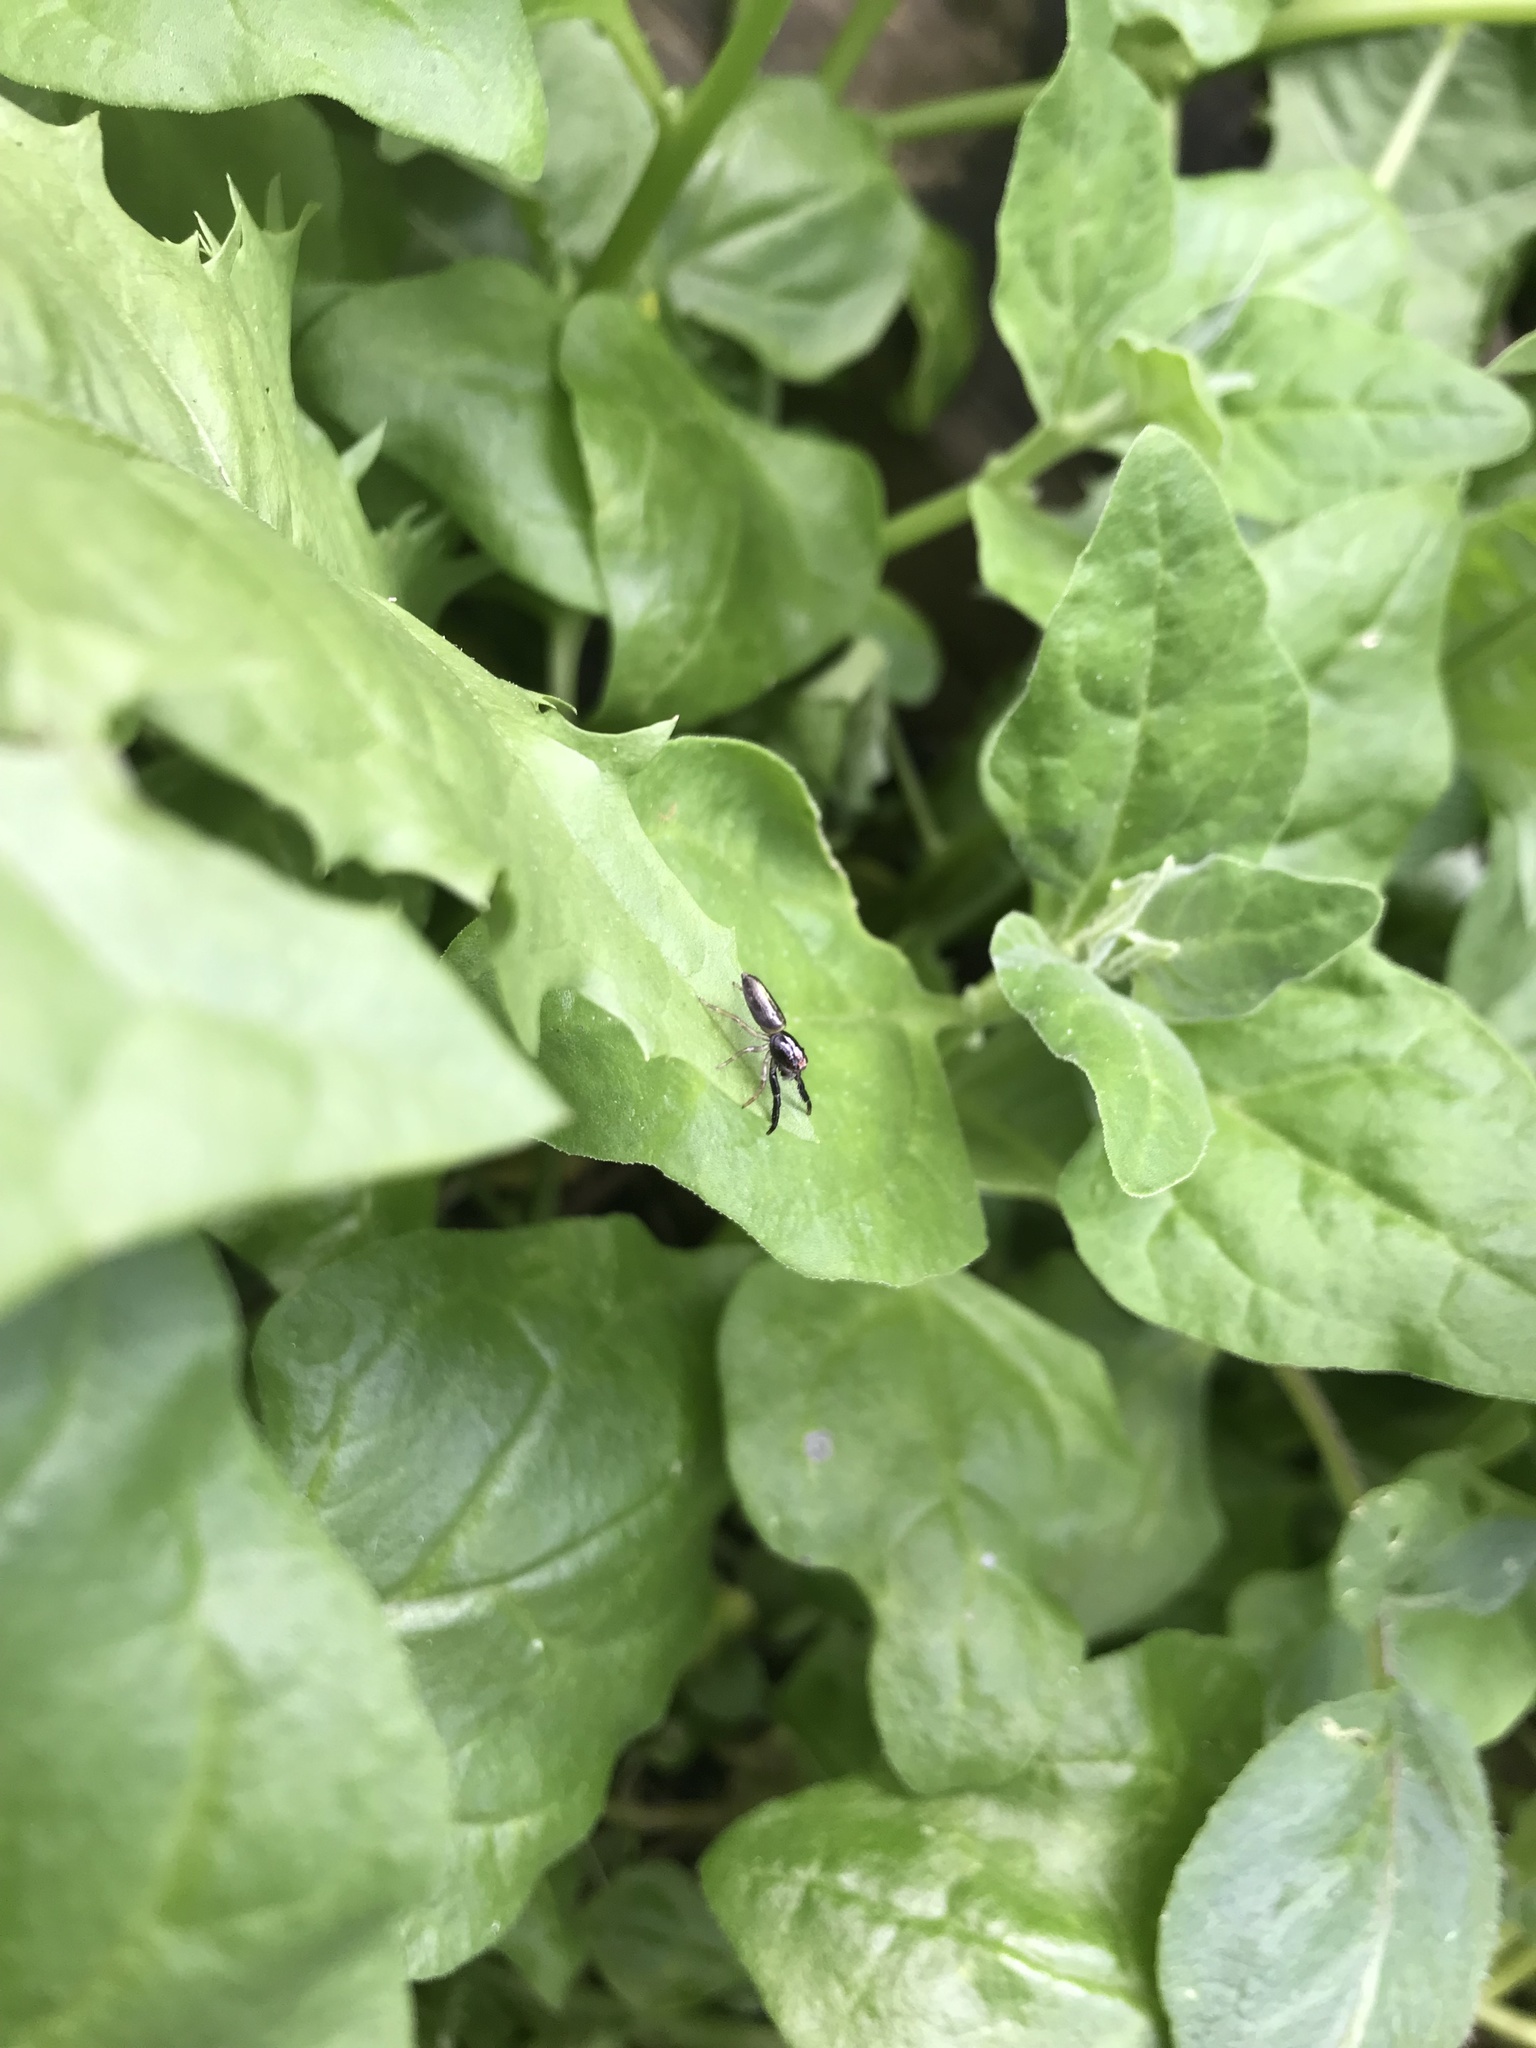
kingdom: Animalia
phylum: Arthropoda
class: Arachnida
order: Araneae
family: Salticidae
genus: Trite
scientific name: Trite planiceps
